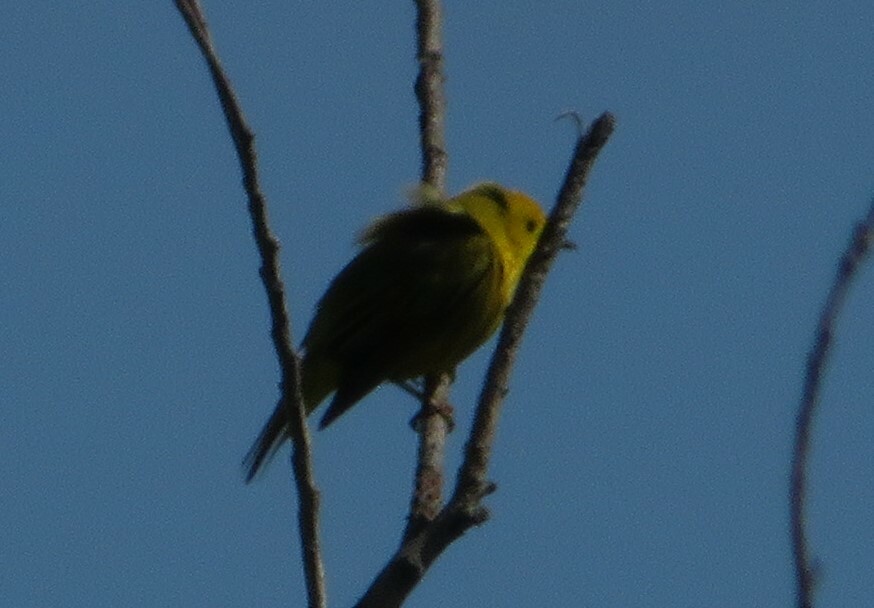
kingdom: Animalia
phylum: Chordata
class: Aves
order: Passeriformes
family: Parulidae
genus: Setophaga
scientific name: Setophaga petechia
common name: Yellow warbler
